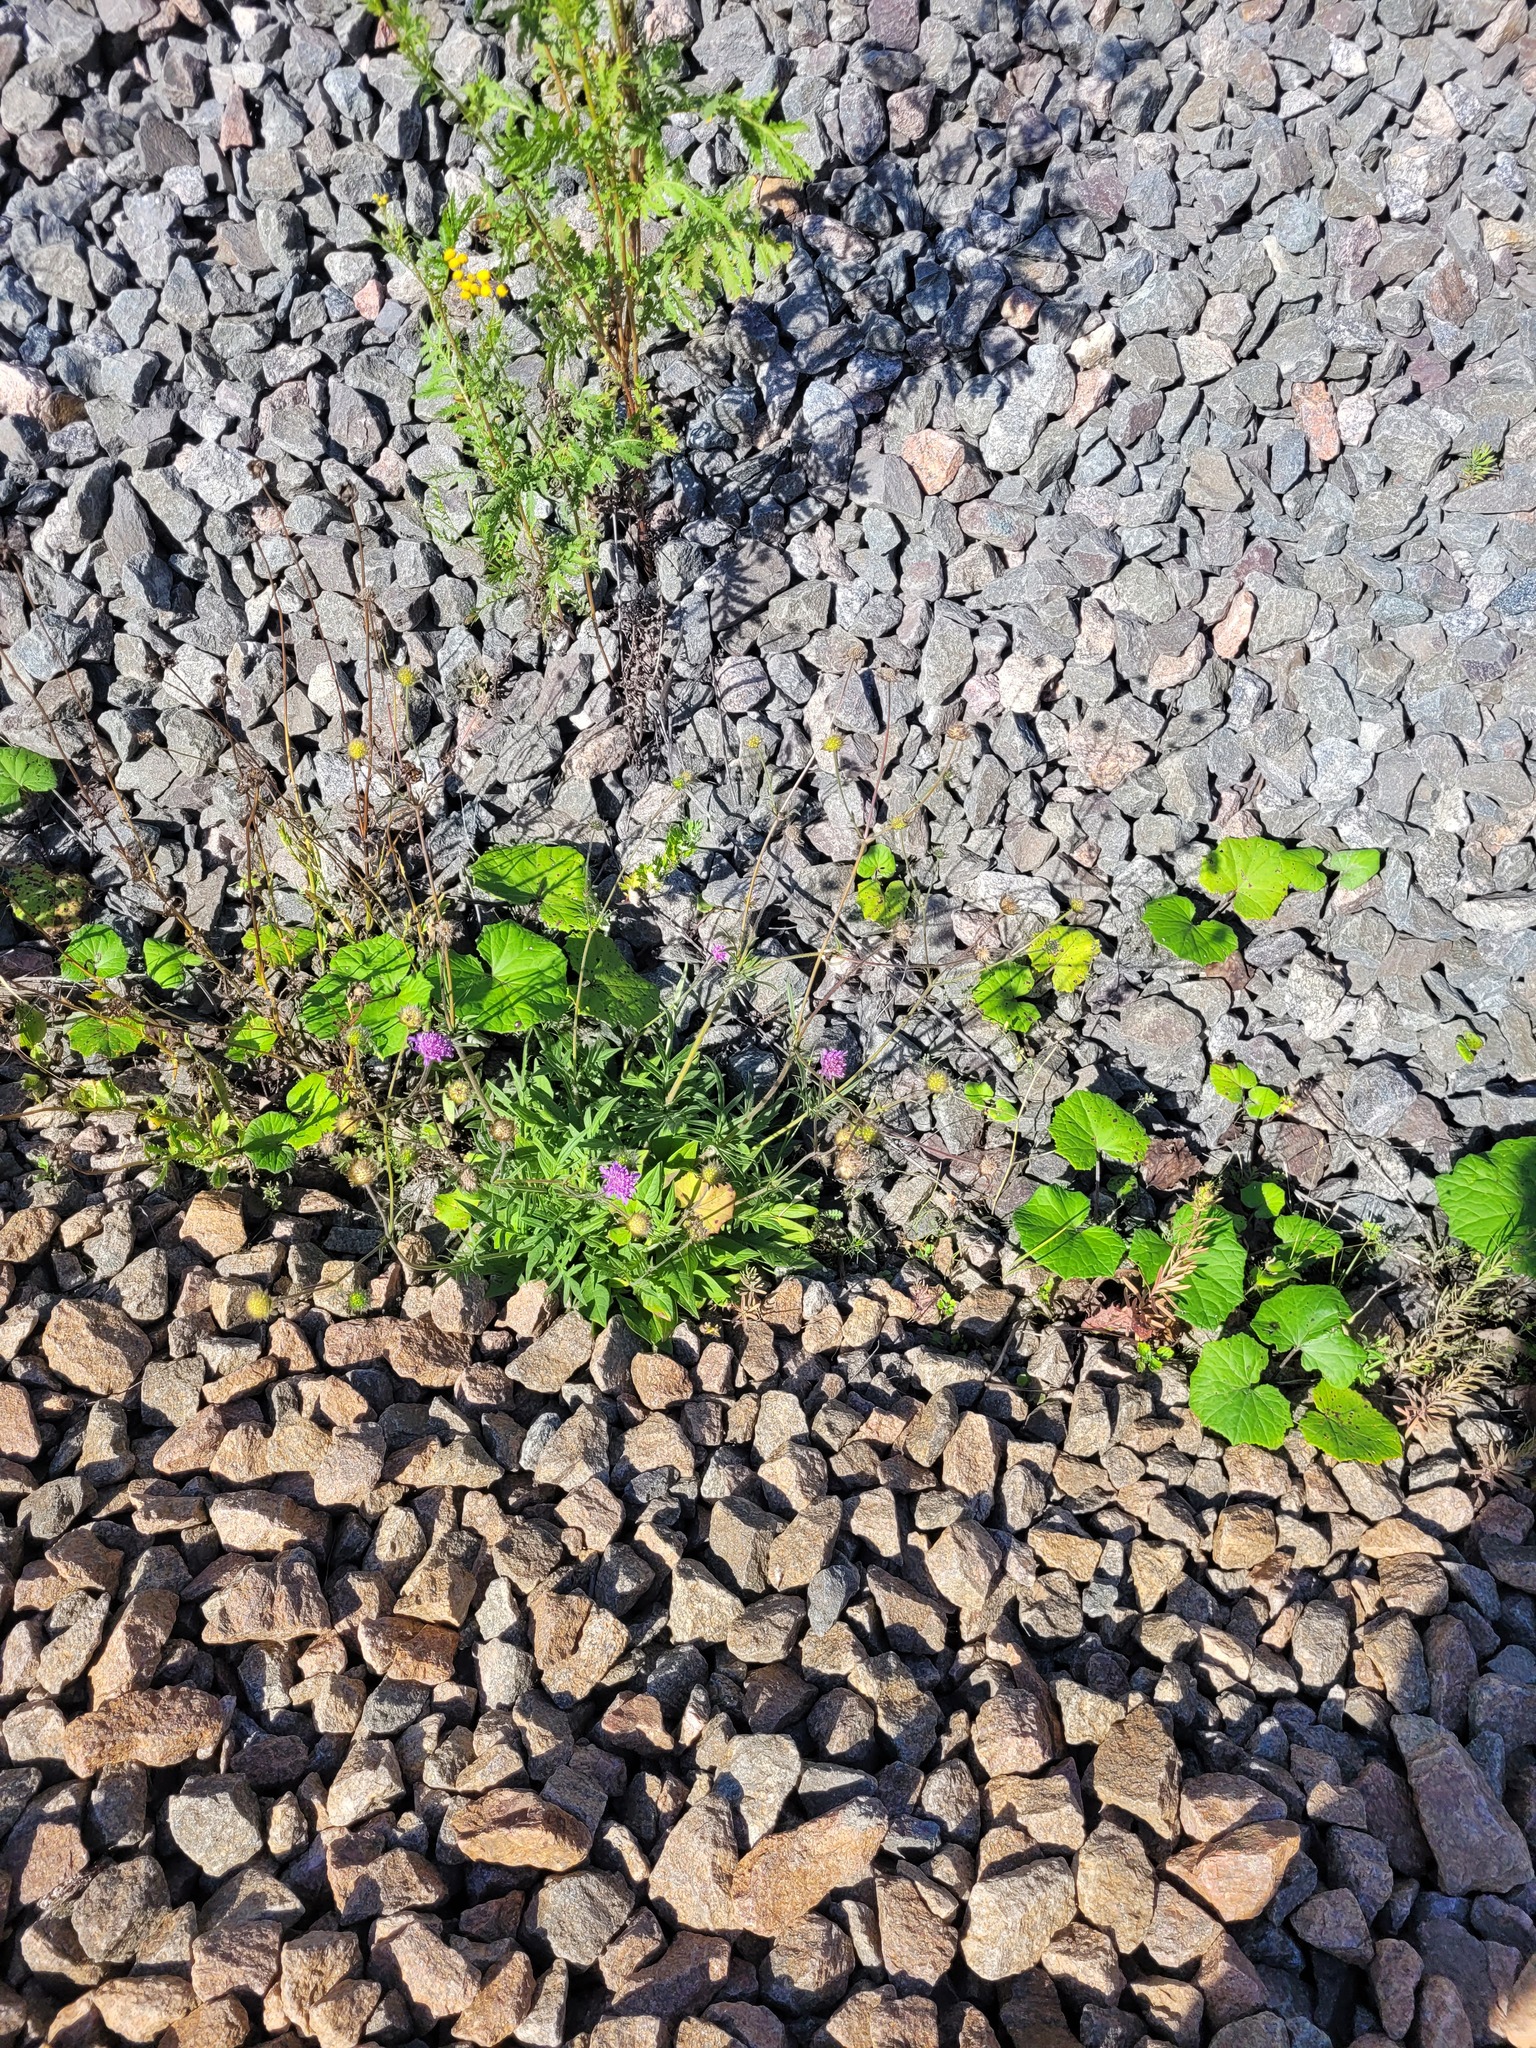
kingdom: Plantae
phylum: Tracheophyta
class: Magnoliopsida
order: Dipsacales
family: Caprifoliaceae
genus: Knautia
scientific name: Knautia arvensis
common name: Field scabiosa
